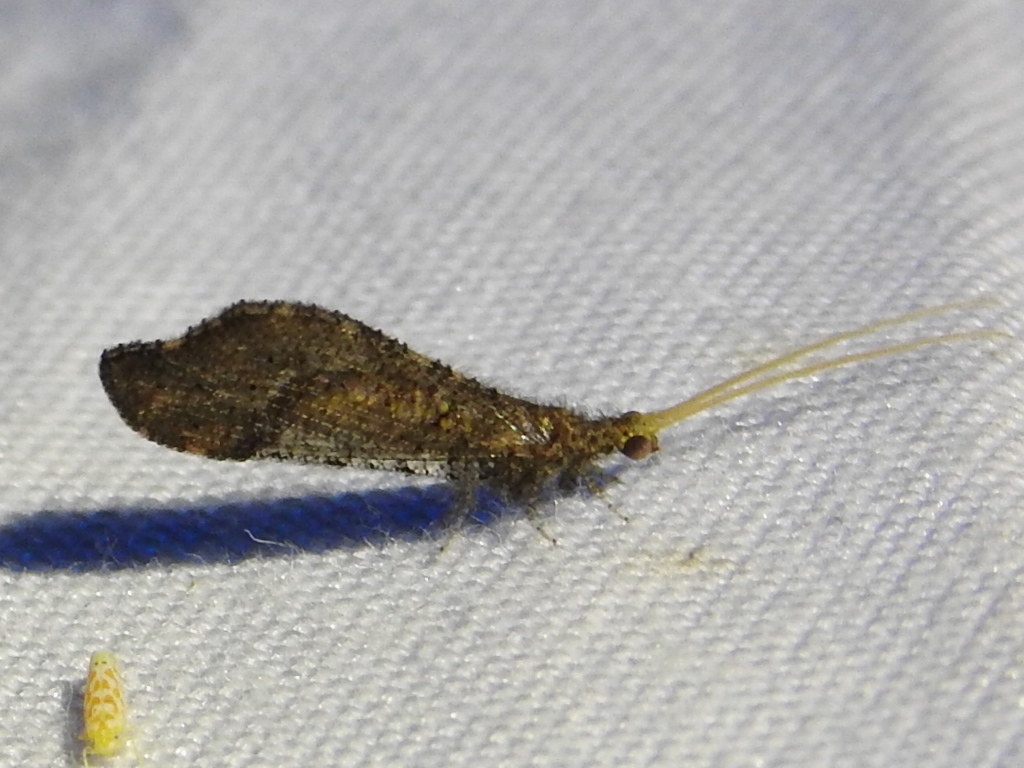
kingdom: Animalia
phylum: Arthropoda
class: Insecta
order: Neuroptera
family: Berothidae
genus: Lomamyia
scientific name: Lomamyia
